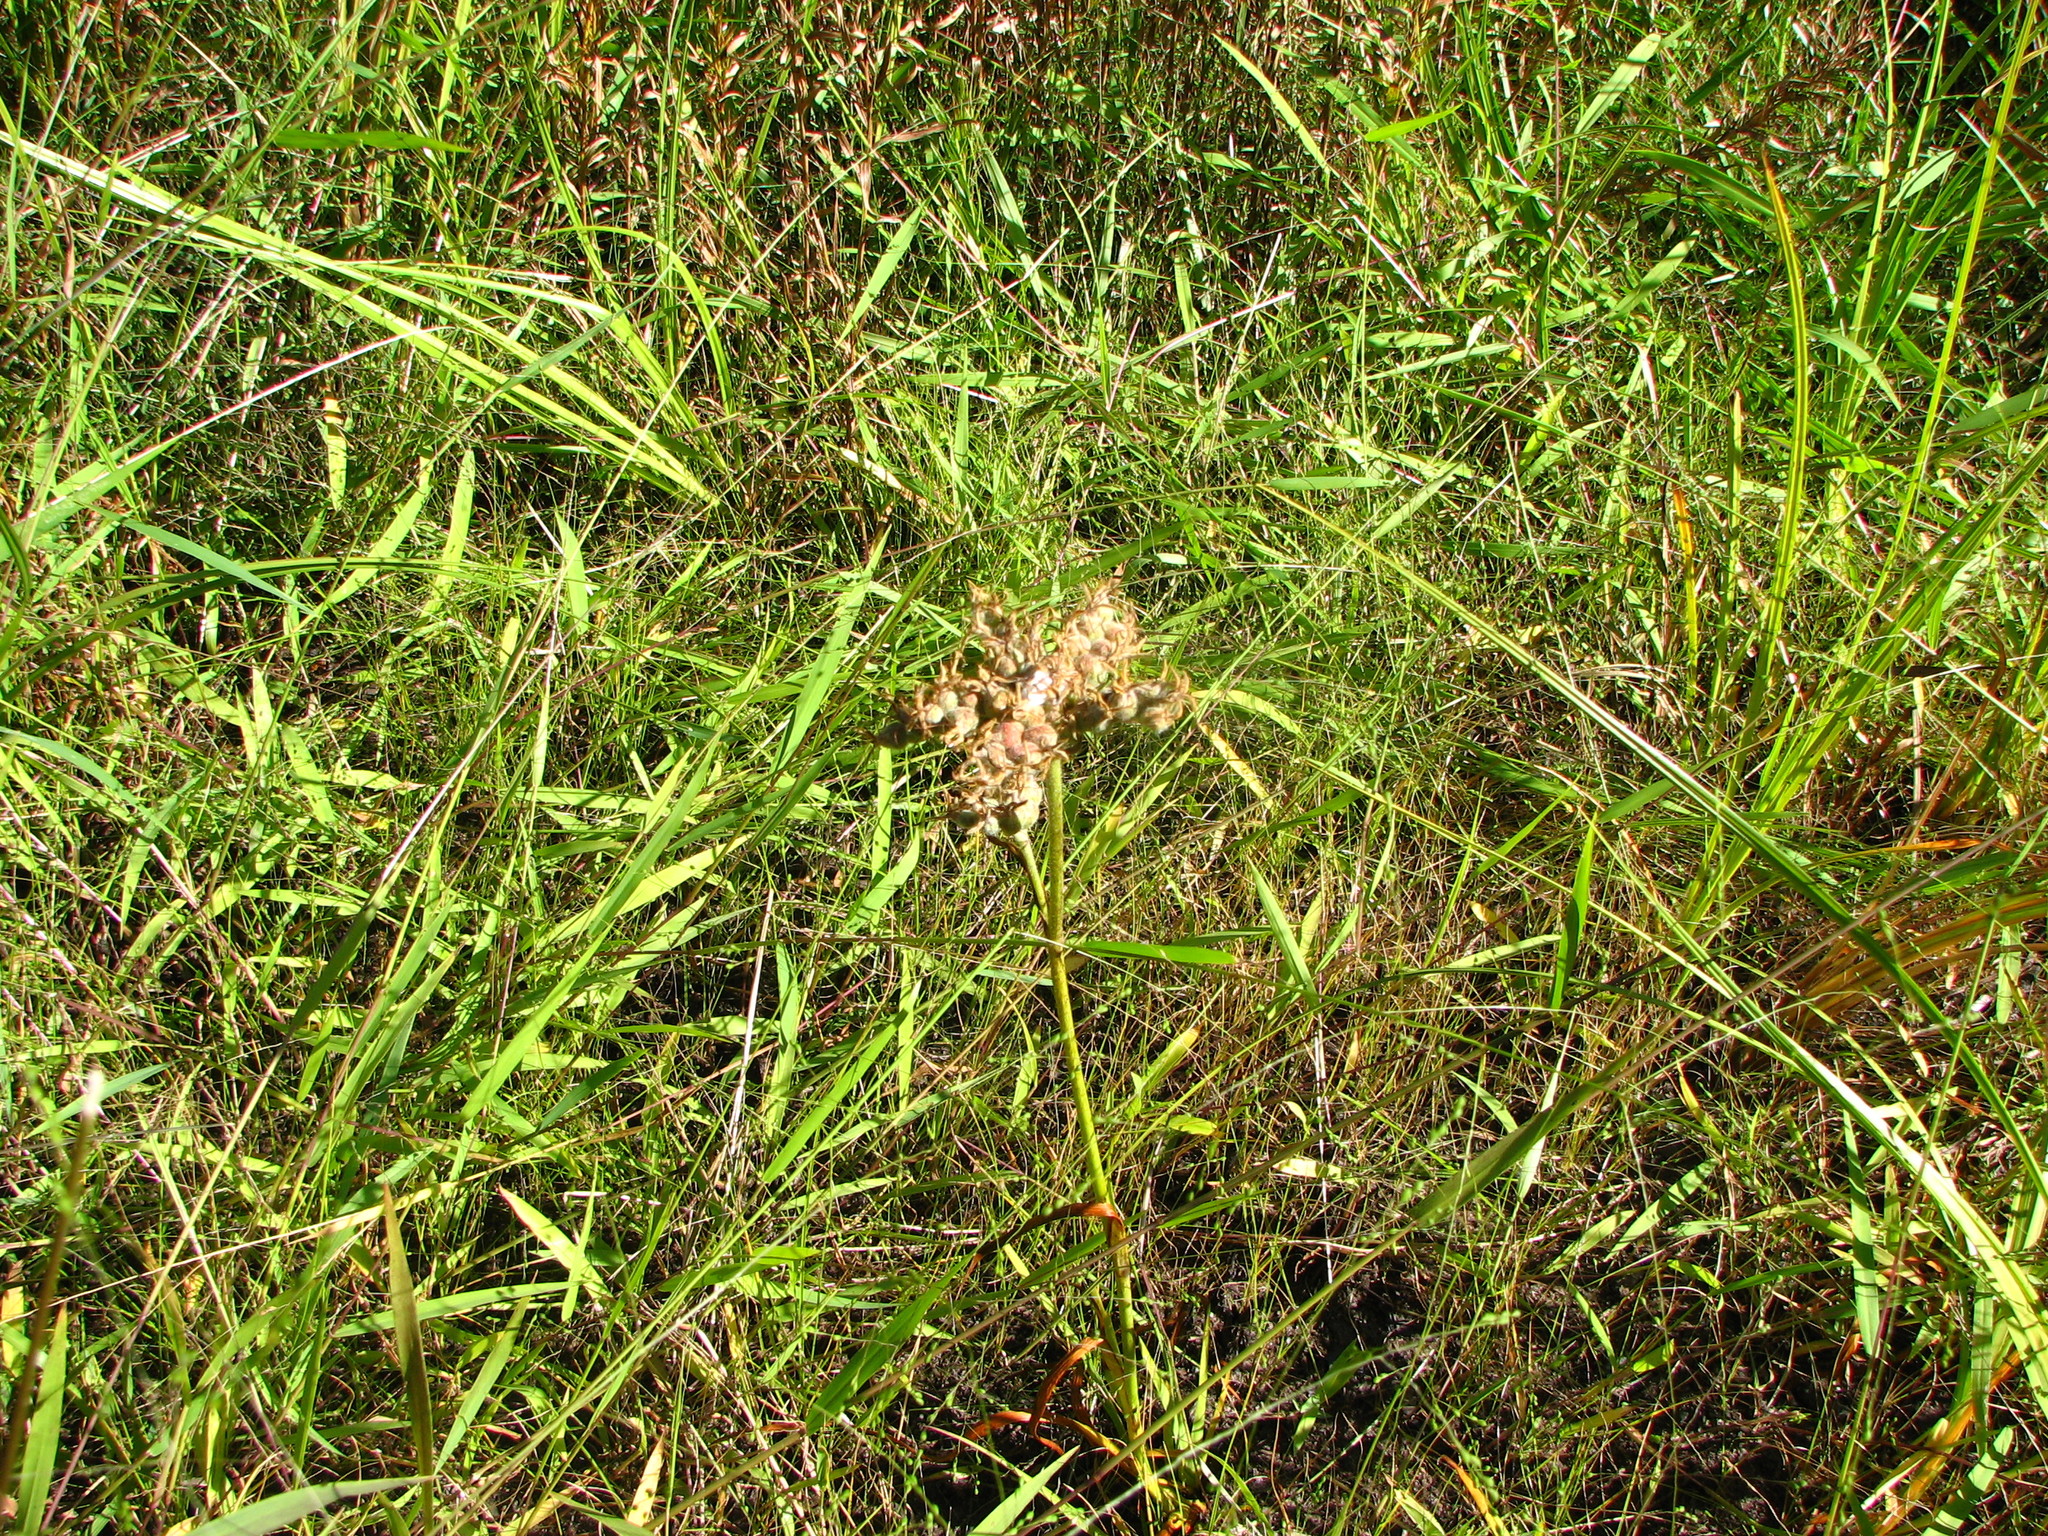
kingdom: Plantae
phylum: Tracheophyta
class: Liliopsida
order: Commelinales
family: Haemodoraceae
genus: Lachnanthes
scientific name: Lachnanthes caroliana
